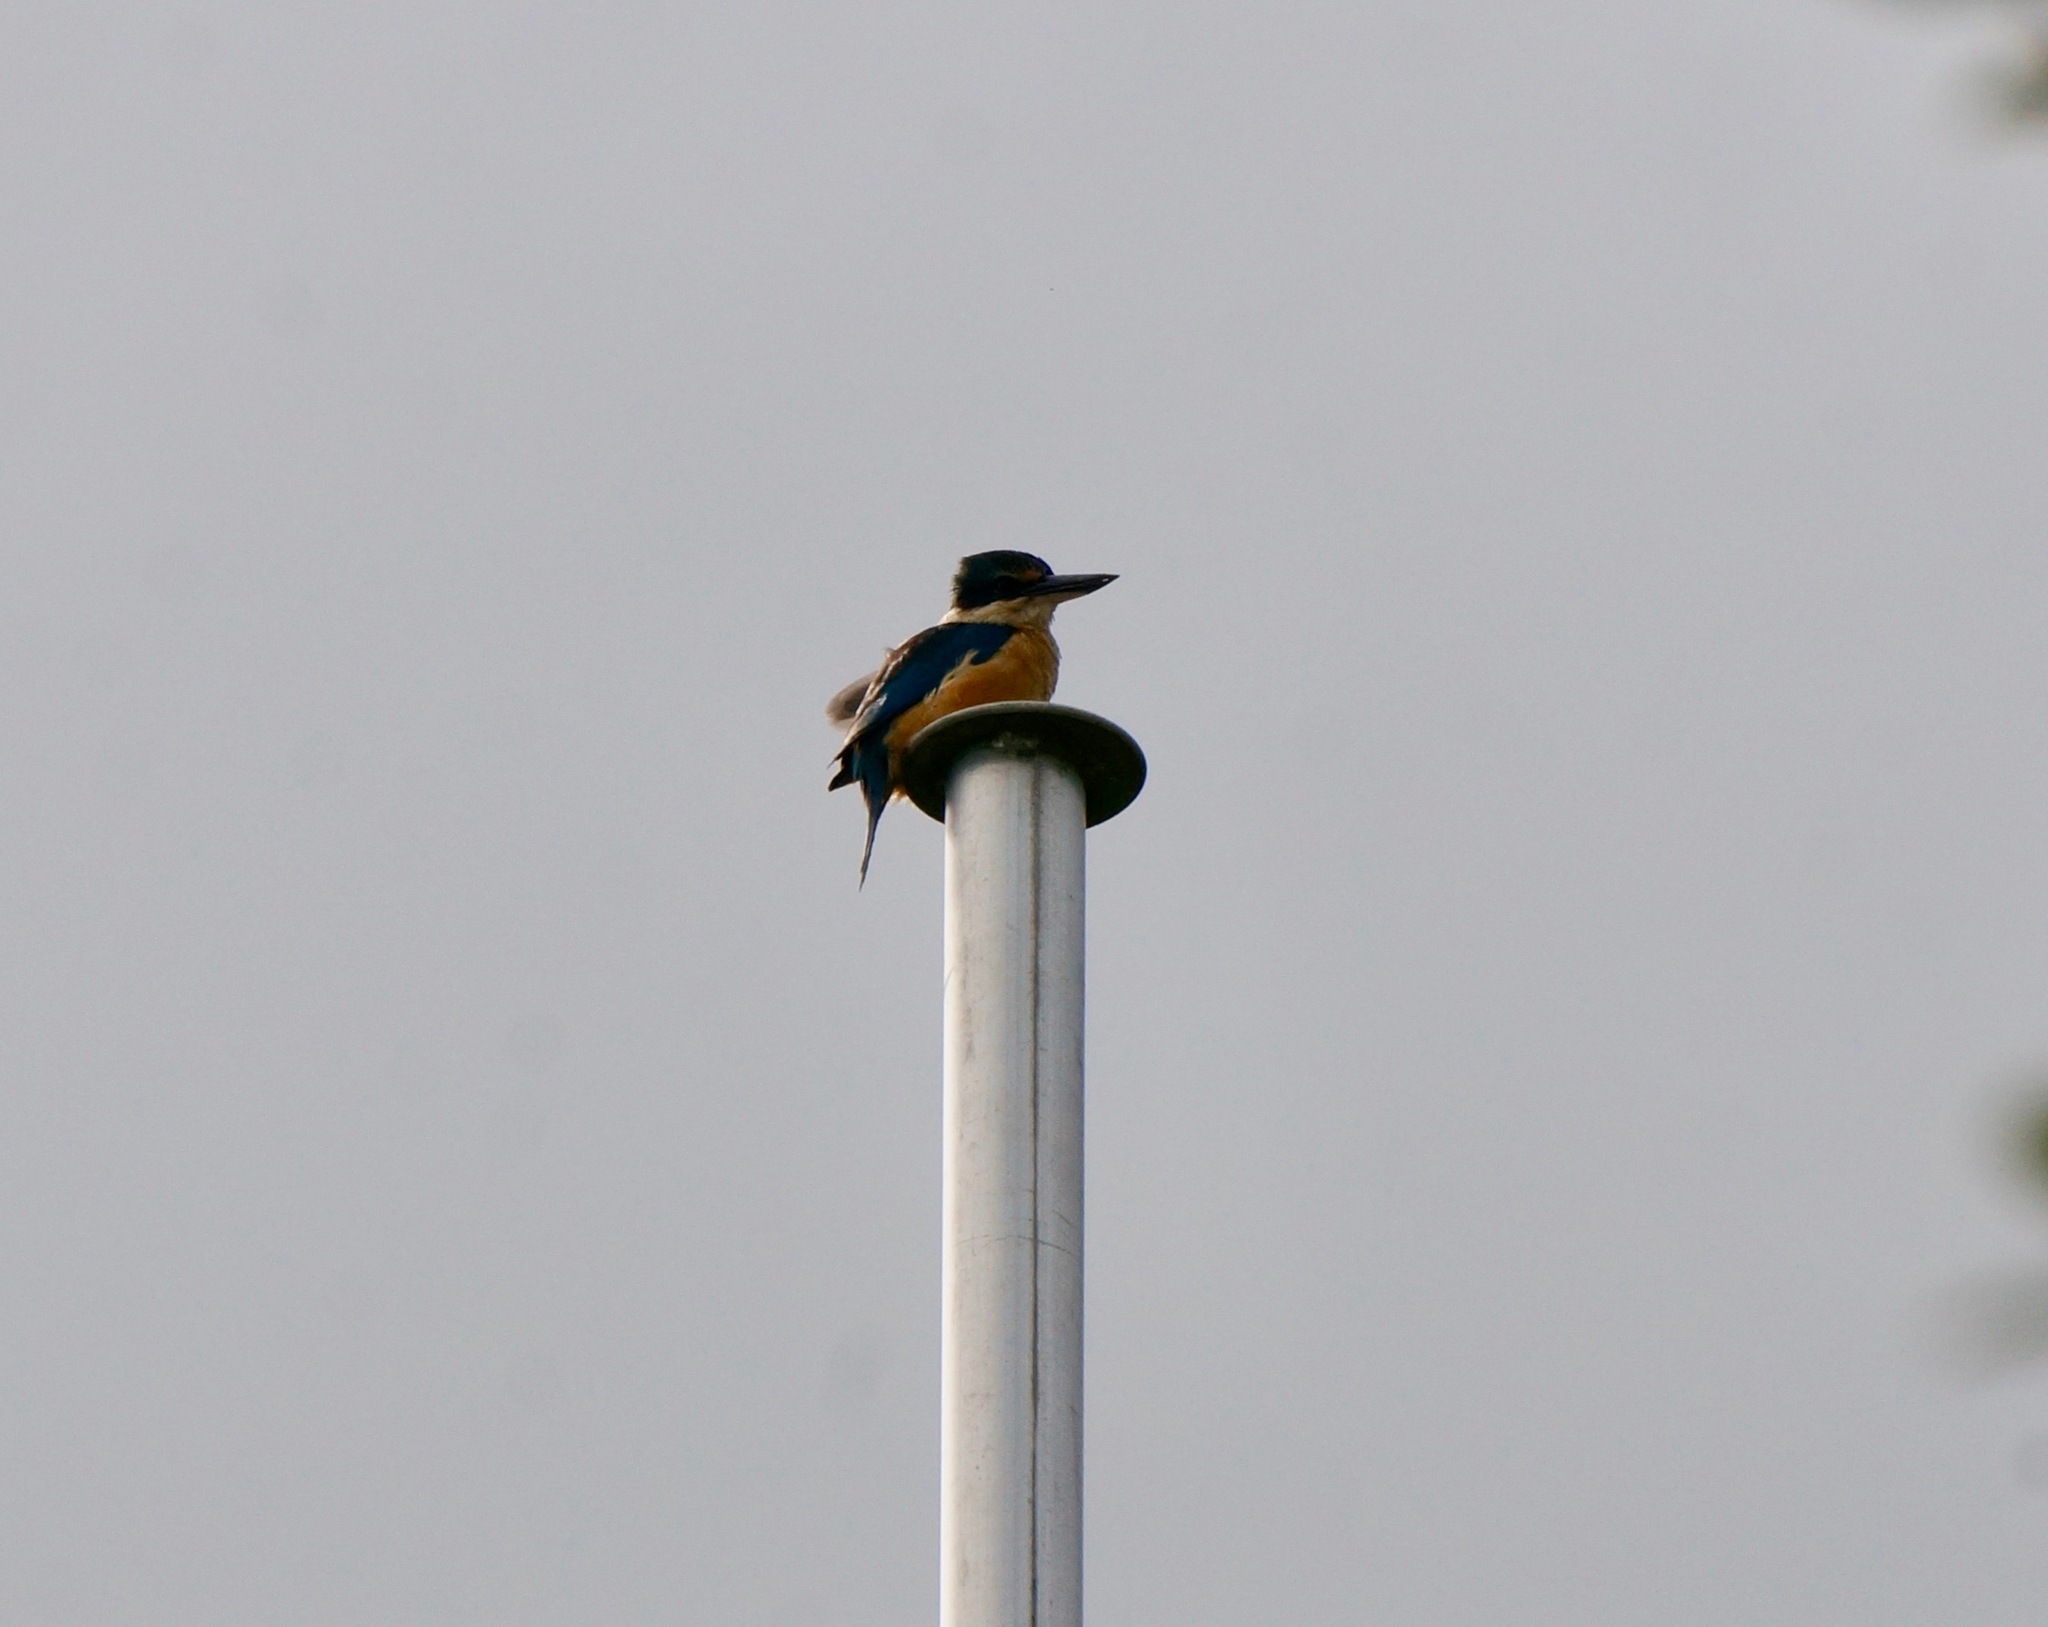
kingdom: Animalia
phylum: Chordata
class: Aves
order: Coraciiformes
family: Alcedinidae
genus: Todiramphus
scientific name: Todiramphus sanctus
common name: Sacred kingfisher
